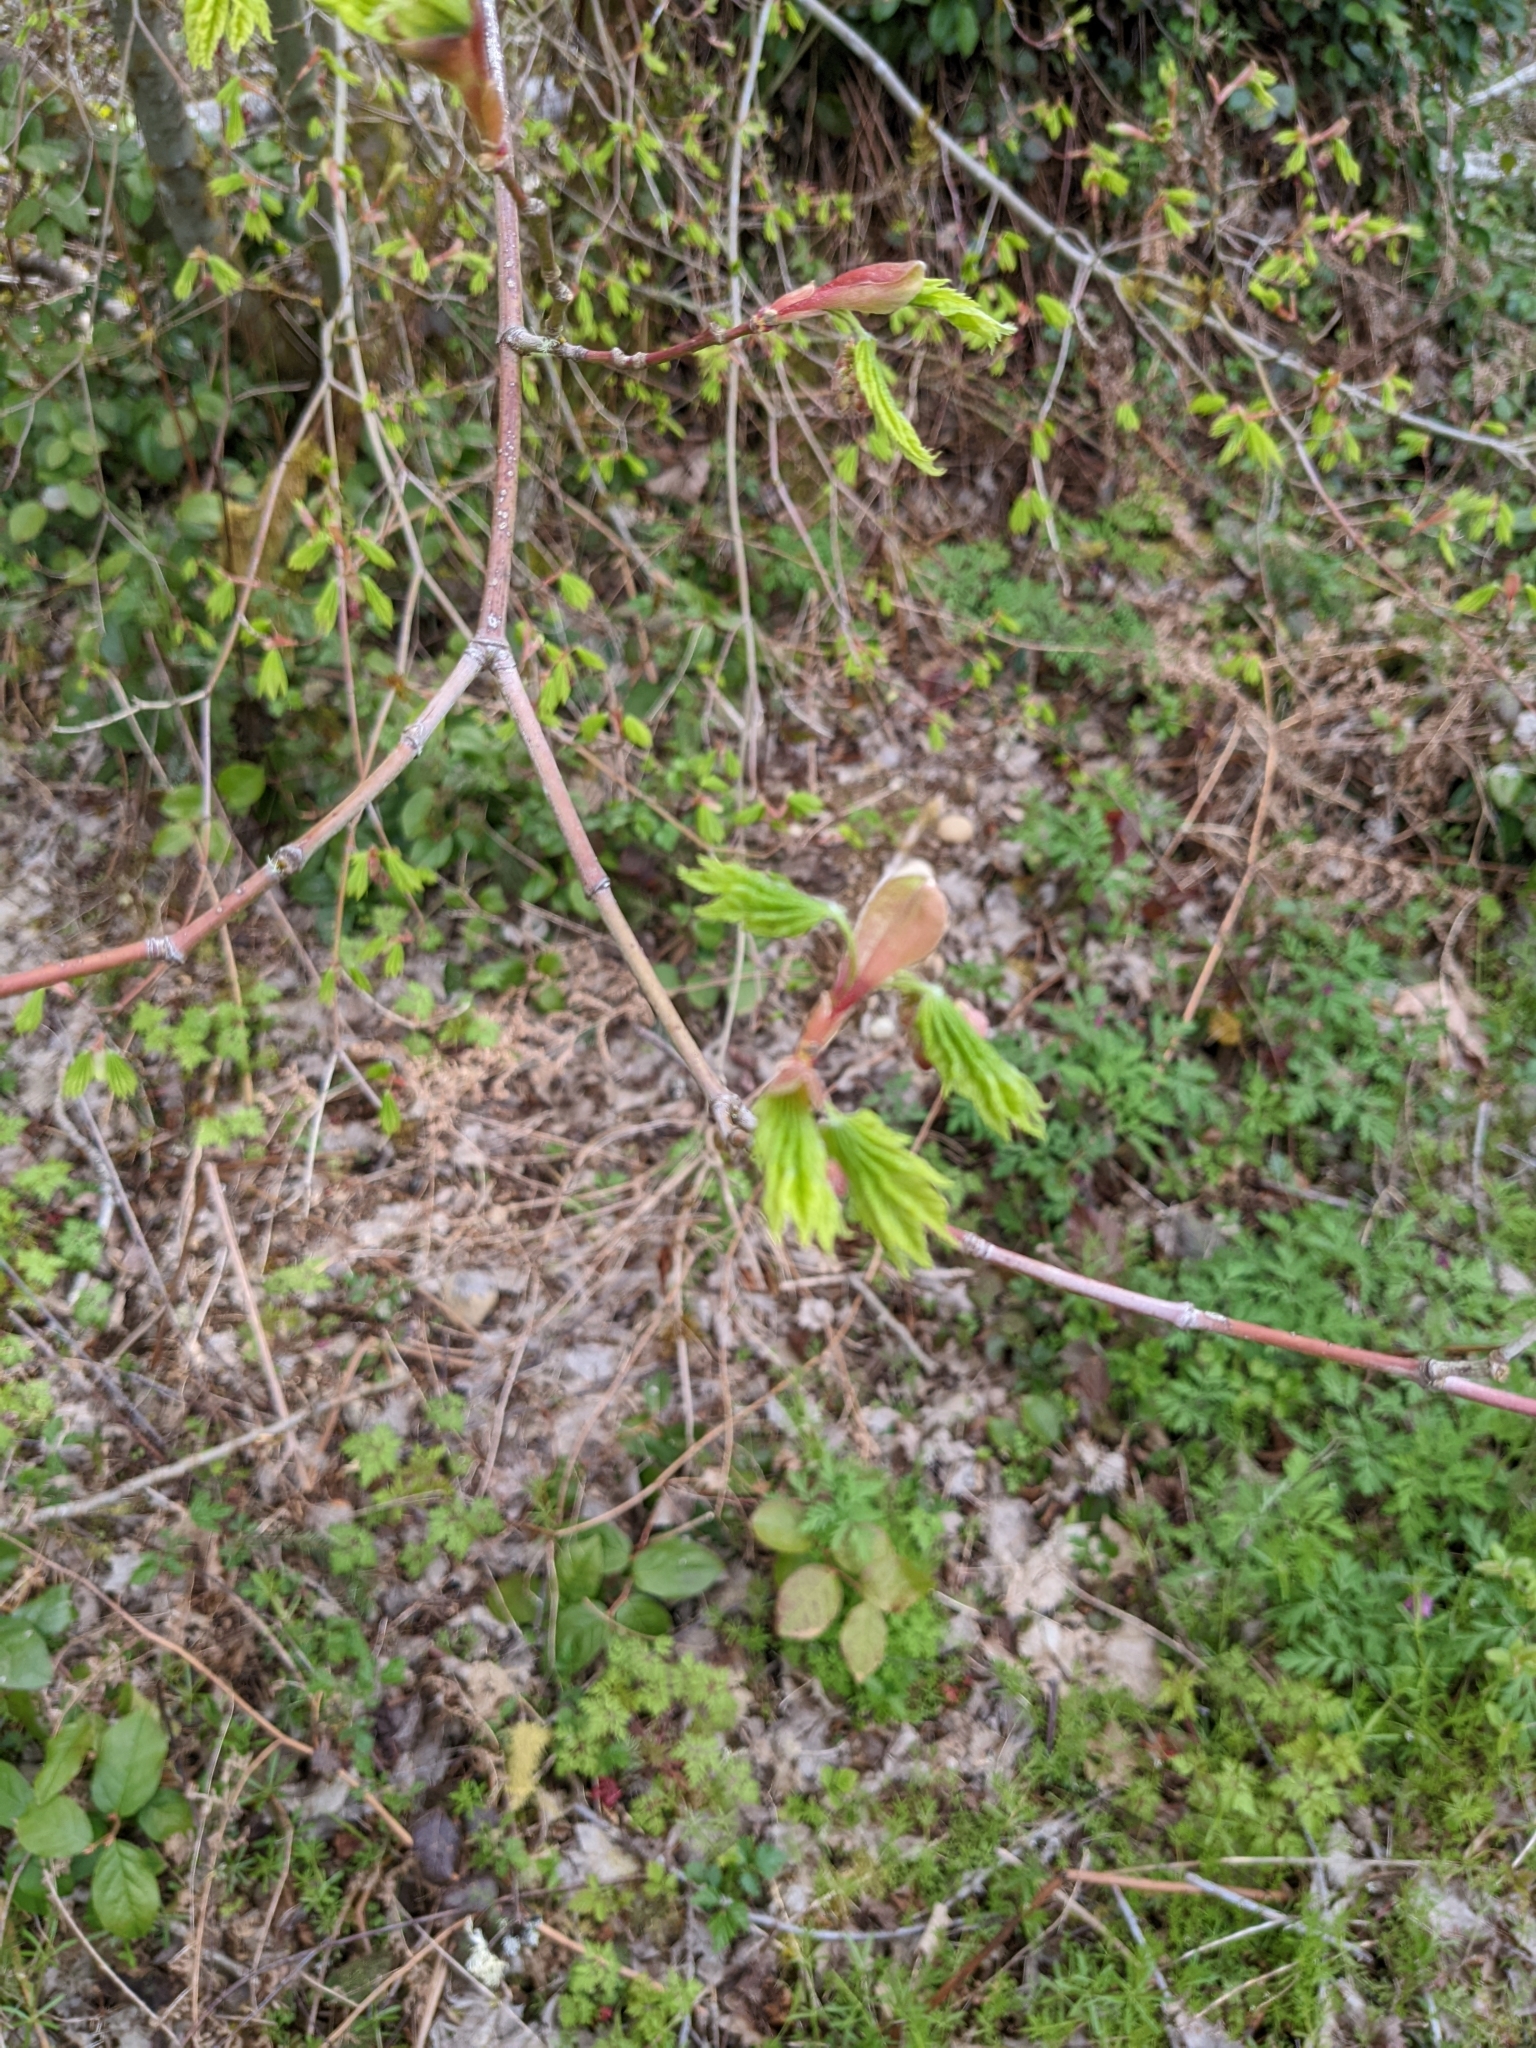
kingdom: Plantae
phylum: Tracheophyta
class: Magnoliopsida
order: Fagales
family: Betulaceae
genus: Corylus
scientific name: Corylus avellana
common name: European hazel
